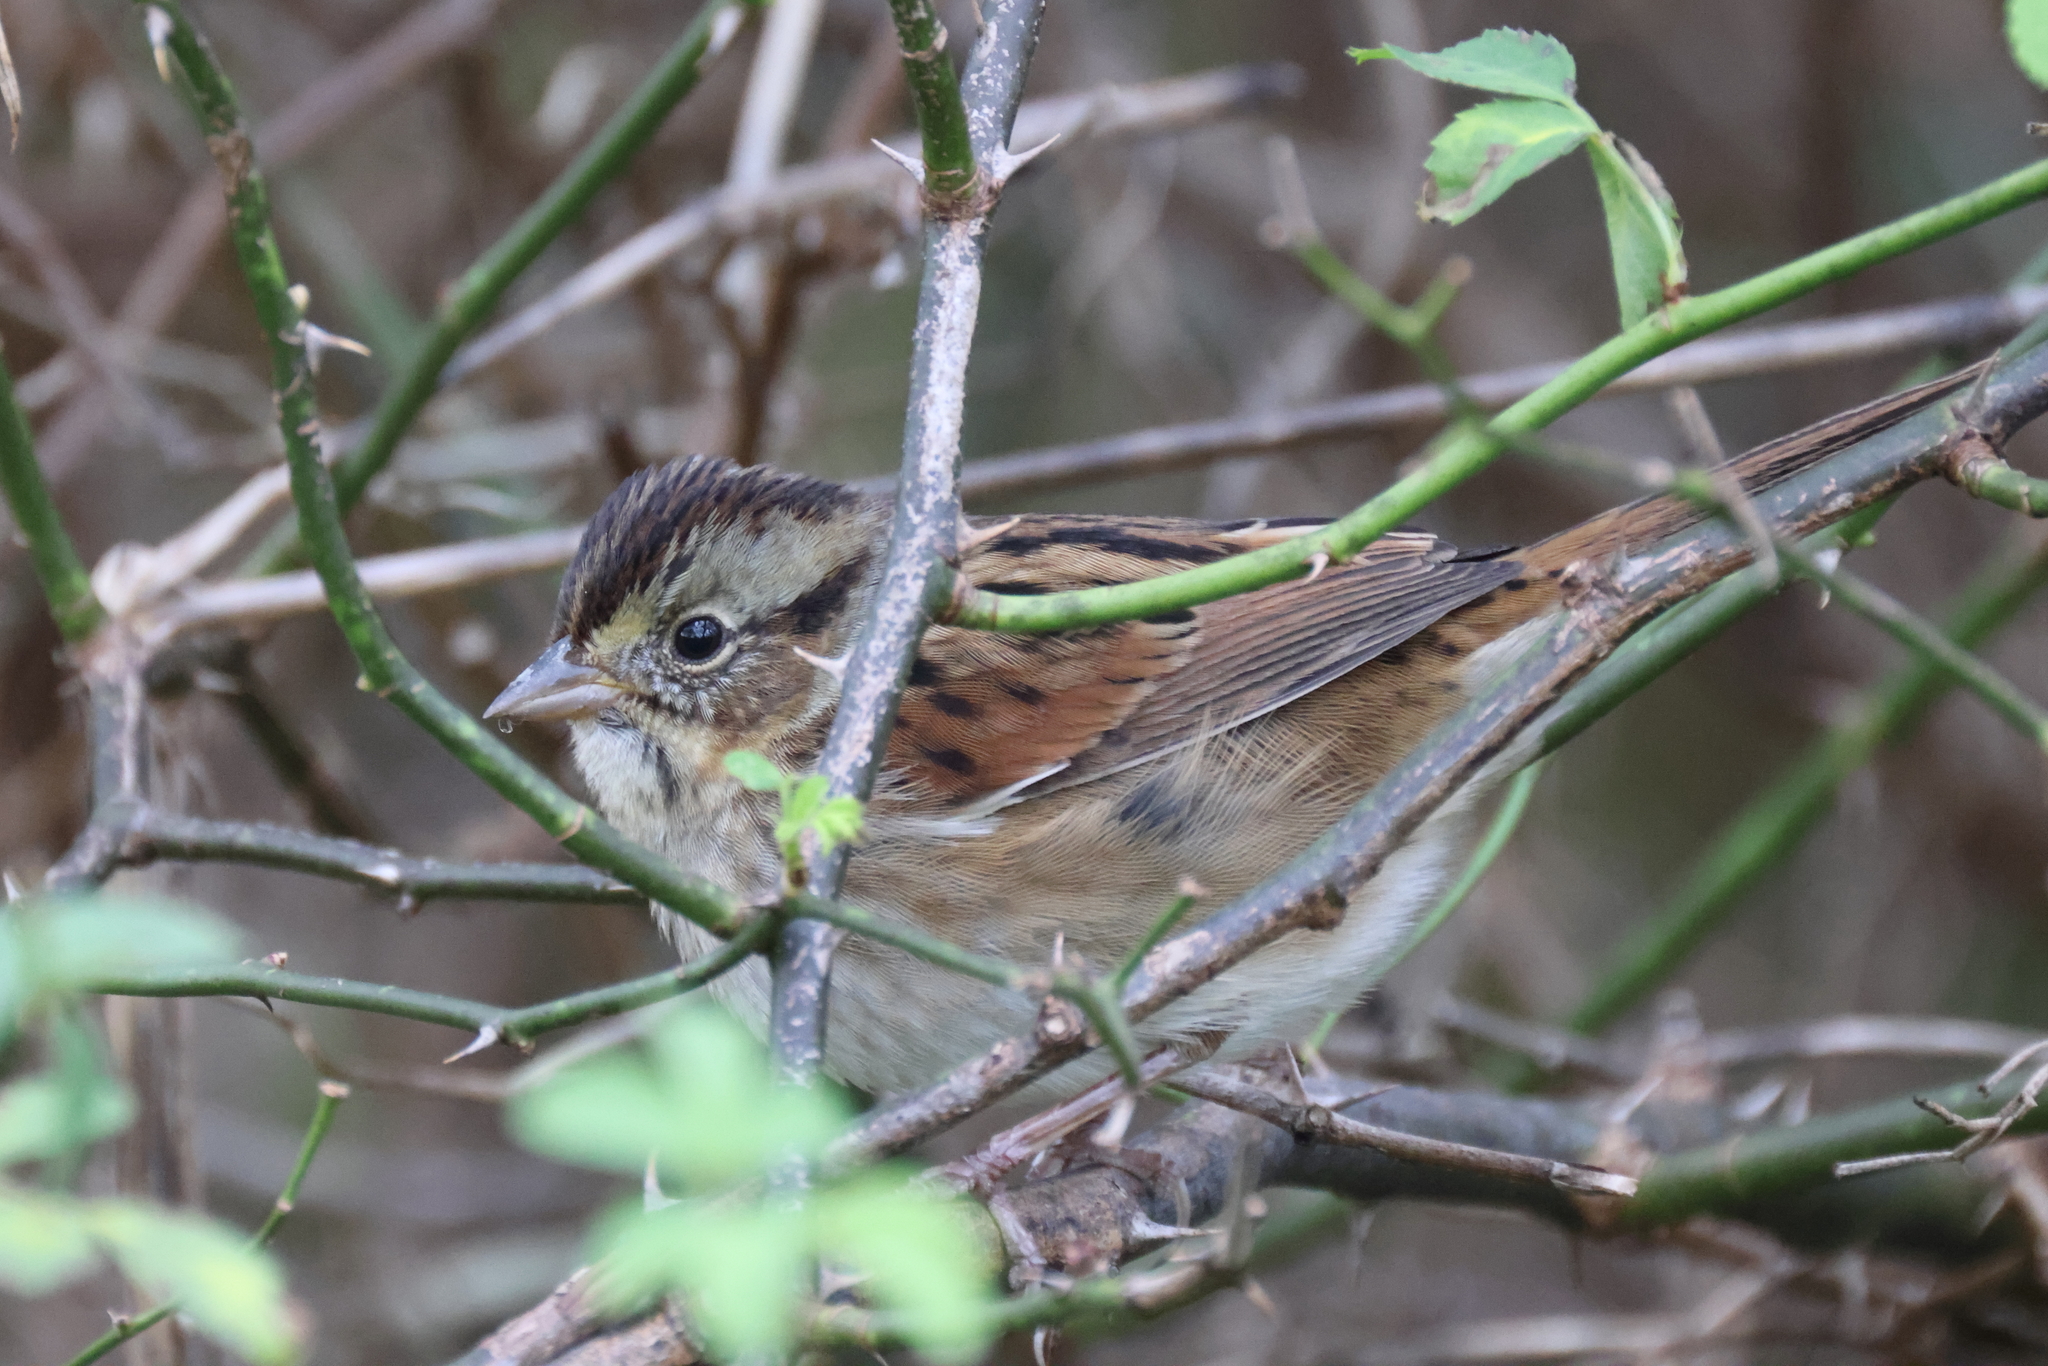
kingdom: Animalia
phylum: Chordata
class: Aves
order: Passeriformes
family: Passerellidae
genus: Melospiza
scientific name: Melospiza georgiana
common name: Swamp sparrow
